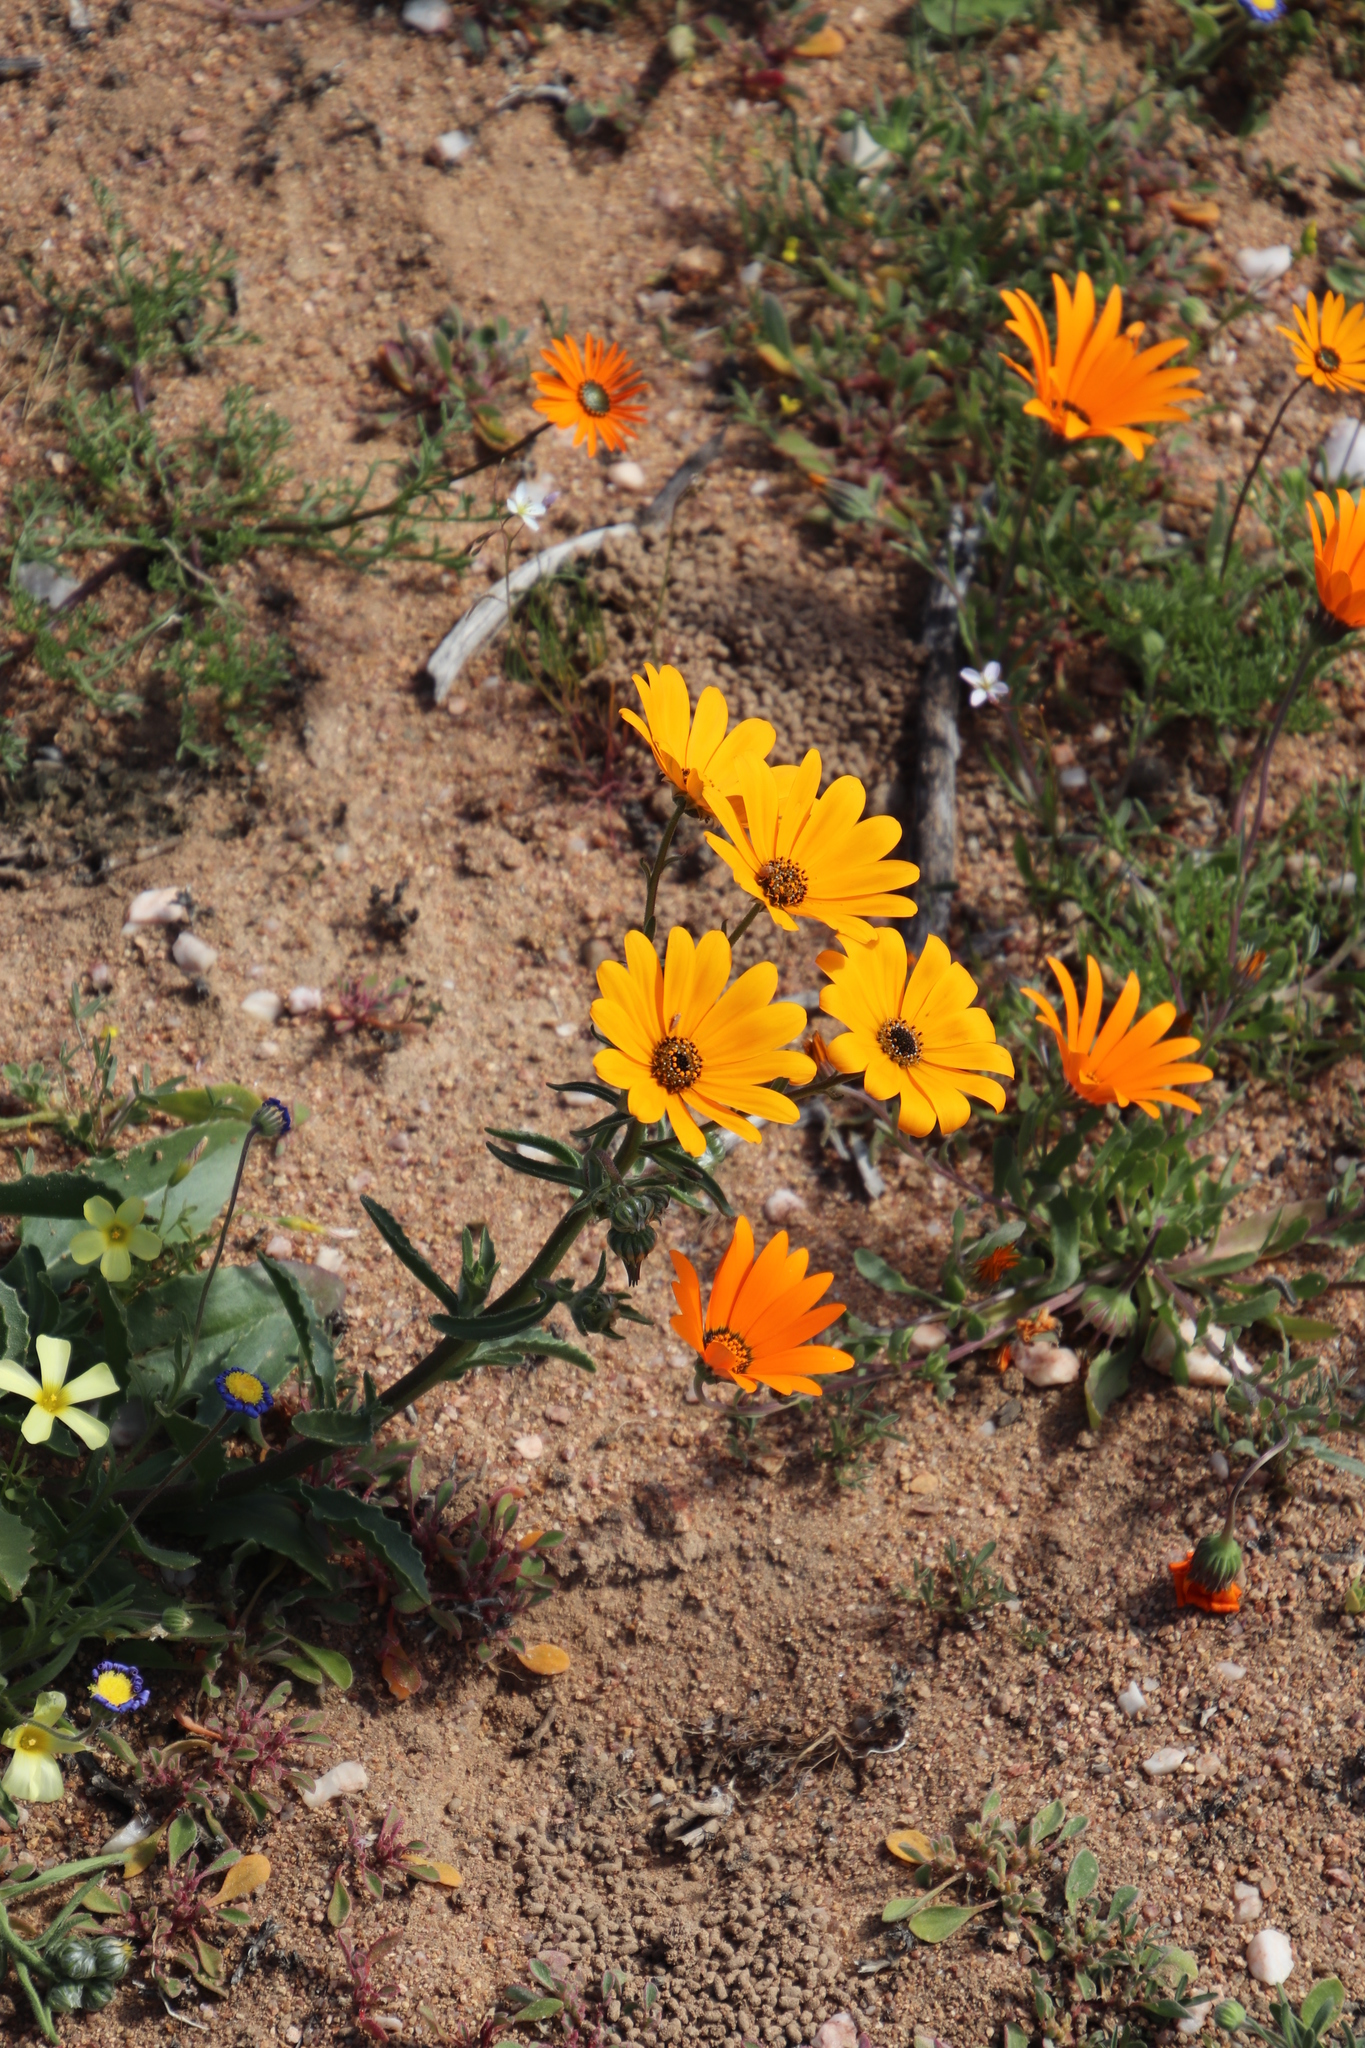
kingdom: Plantae
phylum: Tracheophyta
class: Magnoliopsida
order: Asterales
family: Asteraceae
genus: Dimorphotheca
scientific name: Dimorphotheca sinuata
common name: Glandular cape marigold
